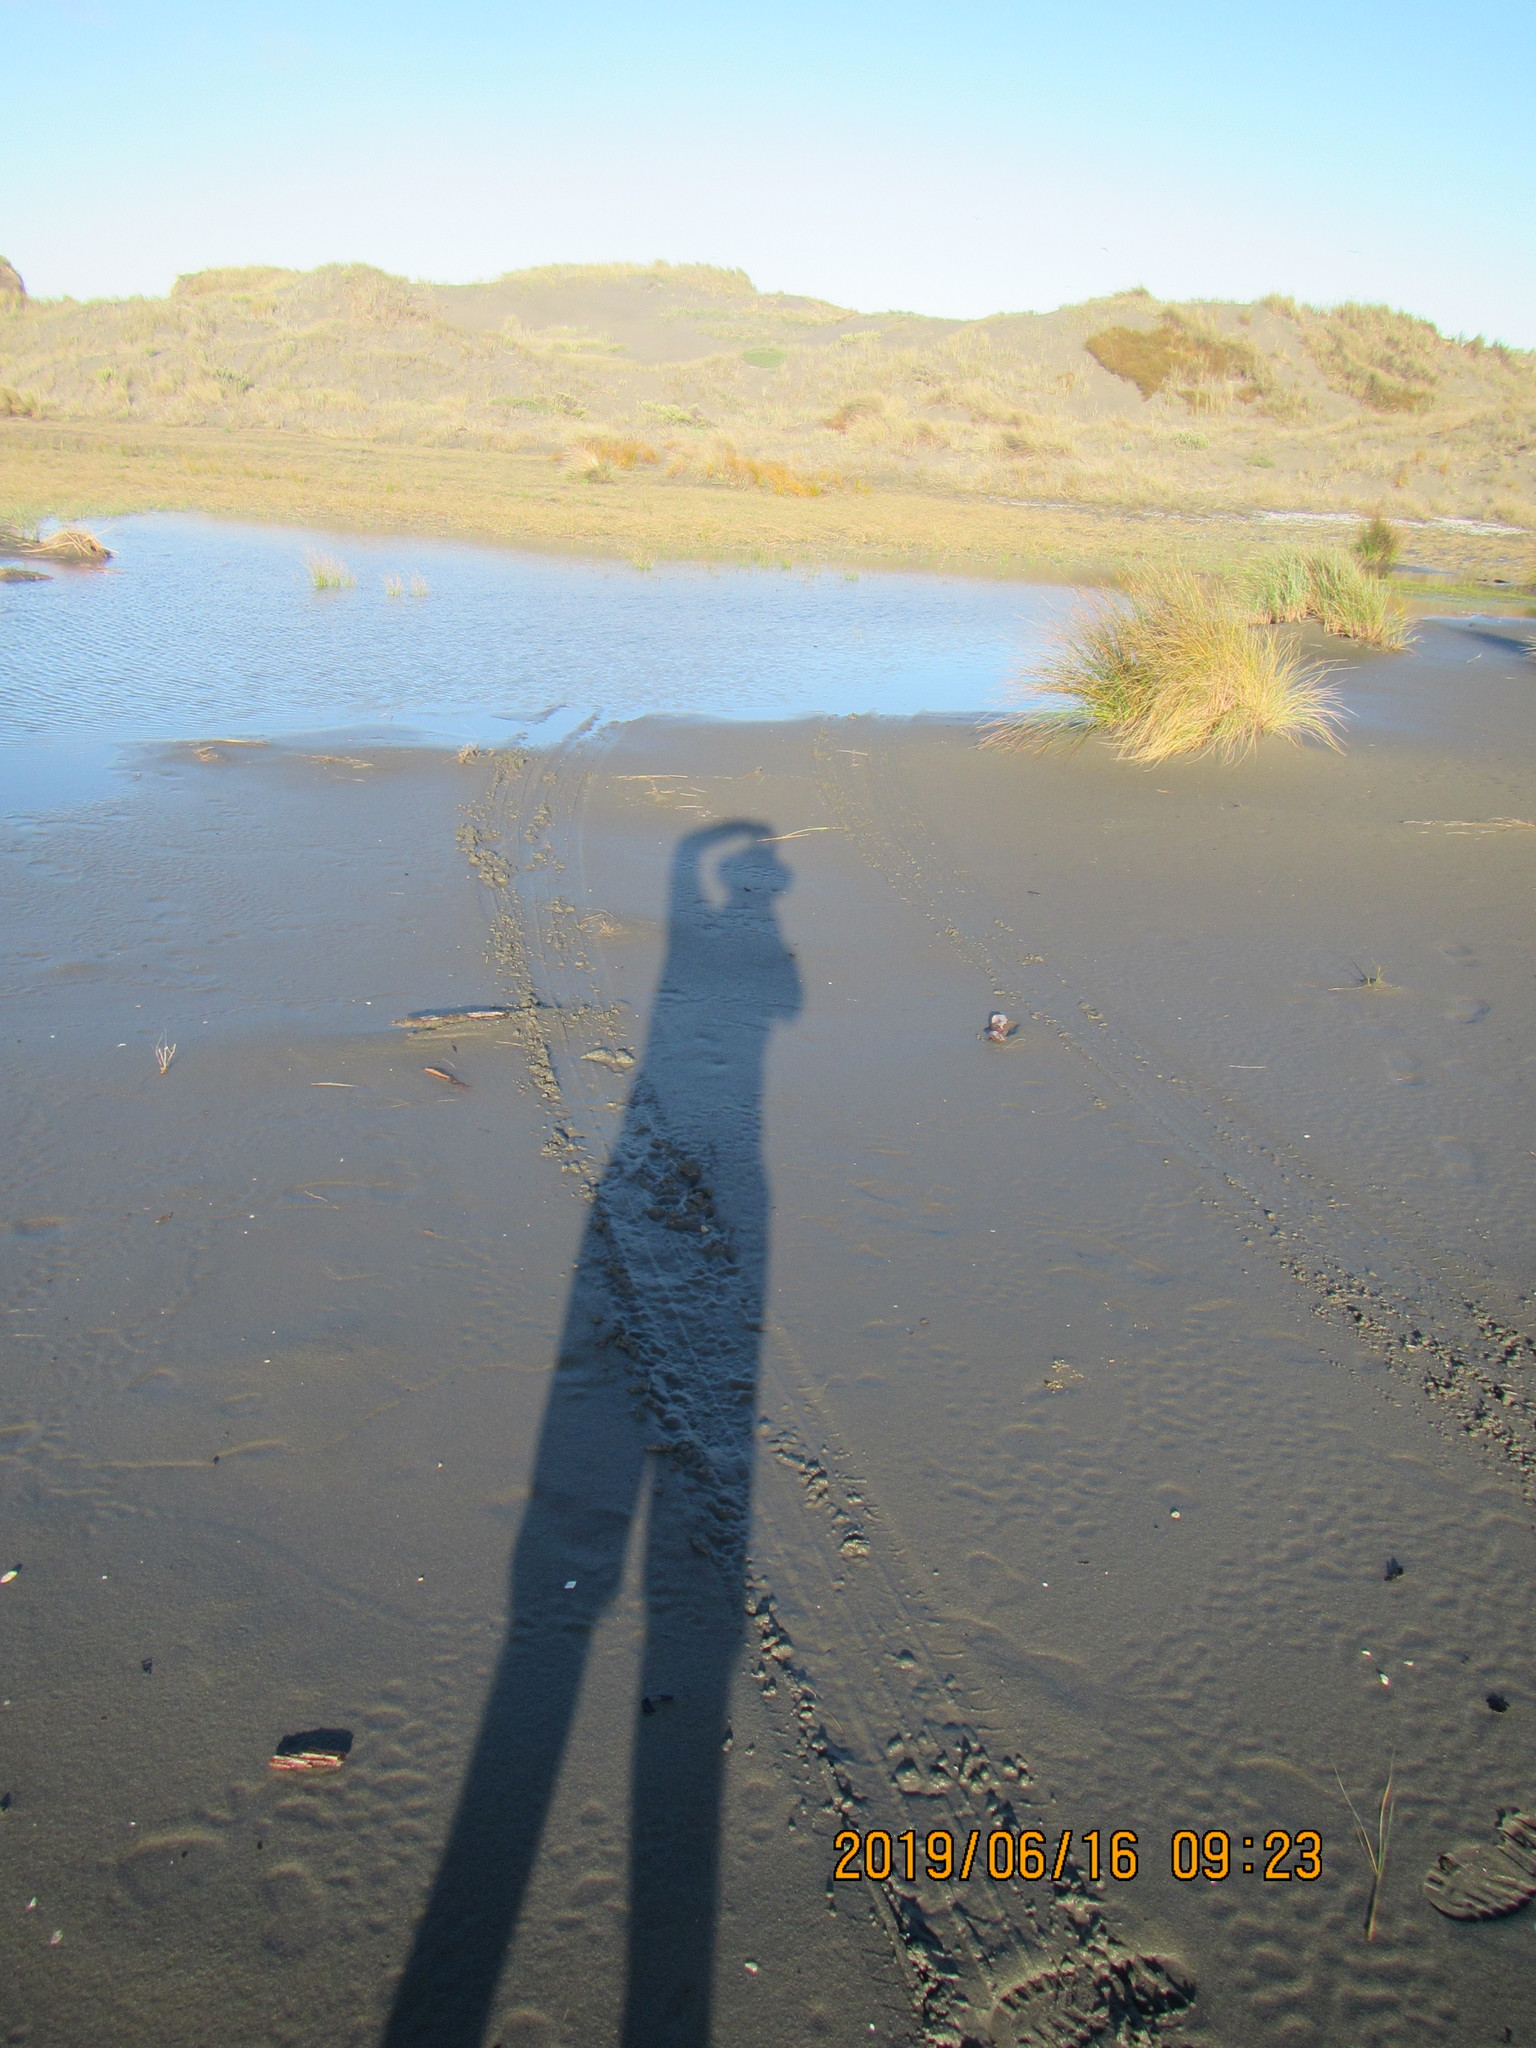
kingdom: Plantae
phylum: Tracheophyta
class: Liliopsida
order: Alismatales
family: Juncaginaceae
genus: Triglochin
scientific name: Triglochin striata
